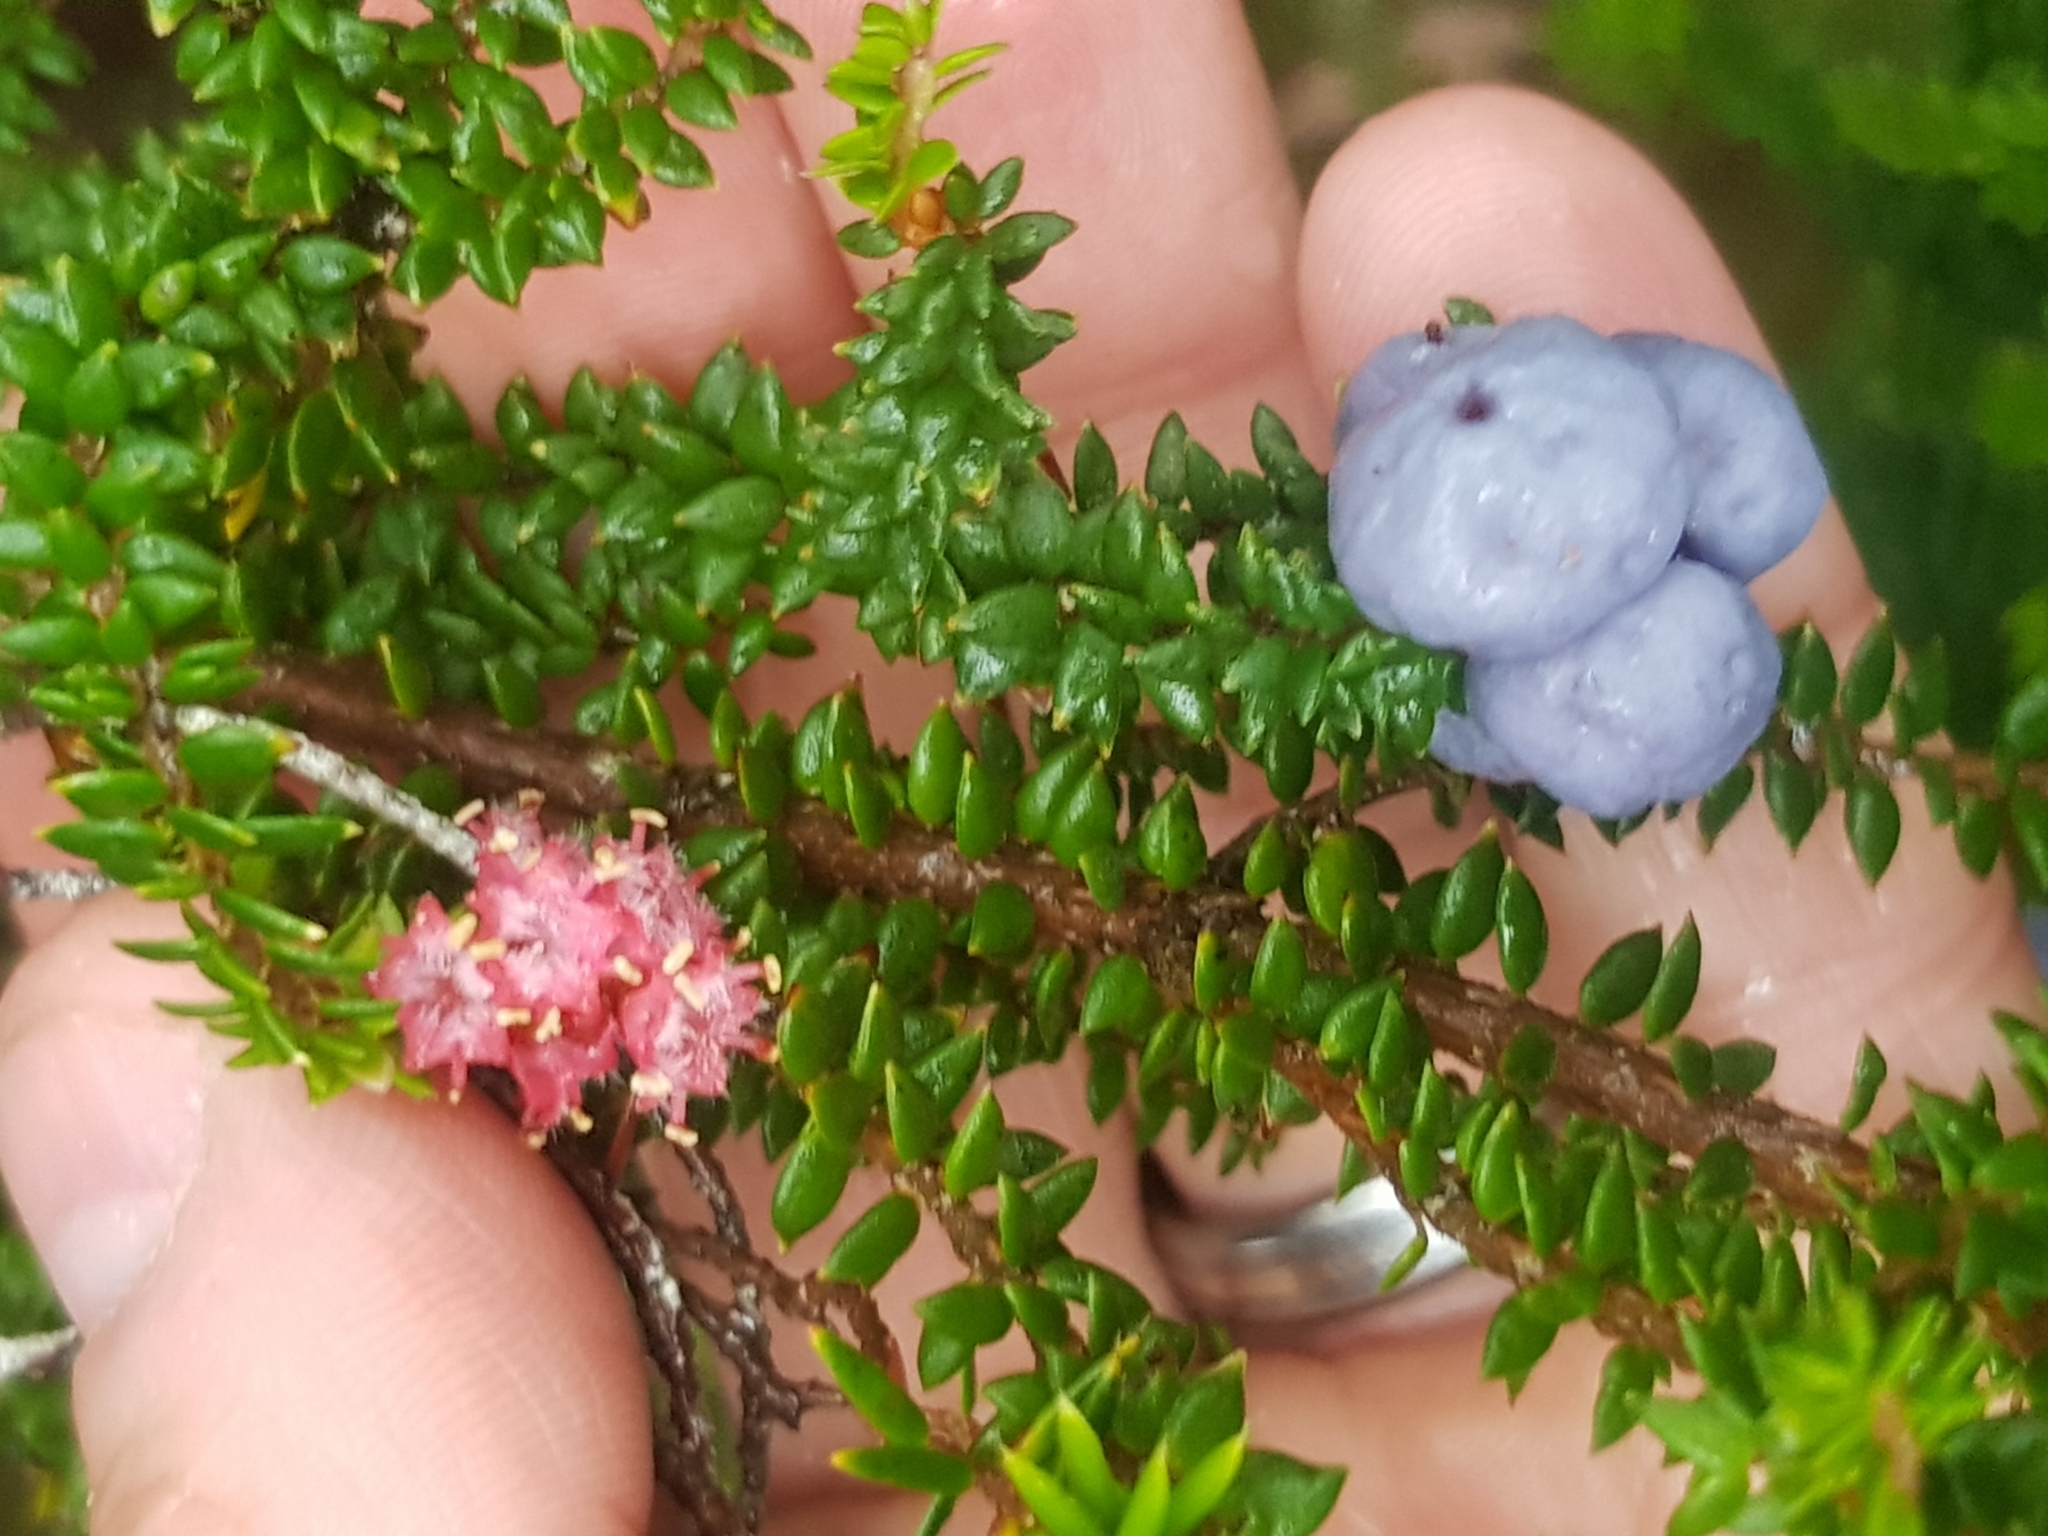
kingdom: Plantae
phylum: Tracheophyta
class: Magnoliopsida
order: Ericales
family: Ericaceae
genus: Trochocarpa
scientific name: Trochocarpa thymifolia
